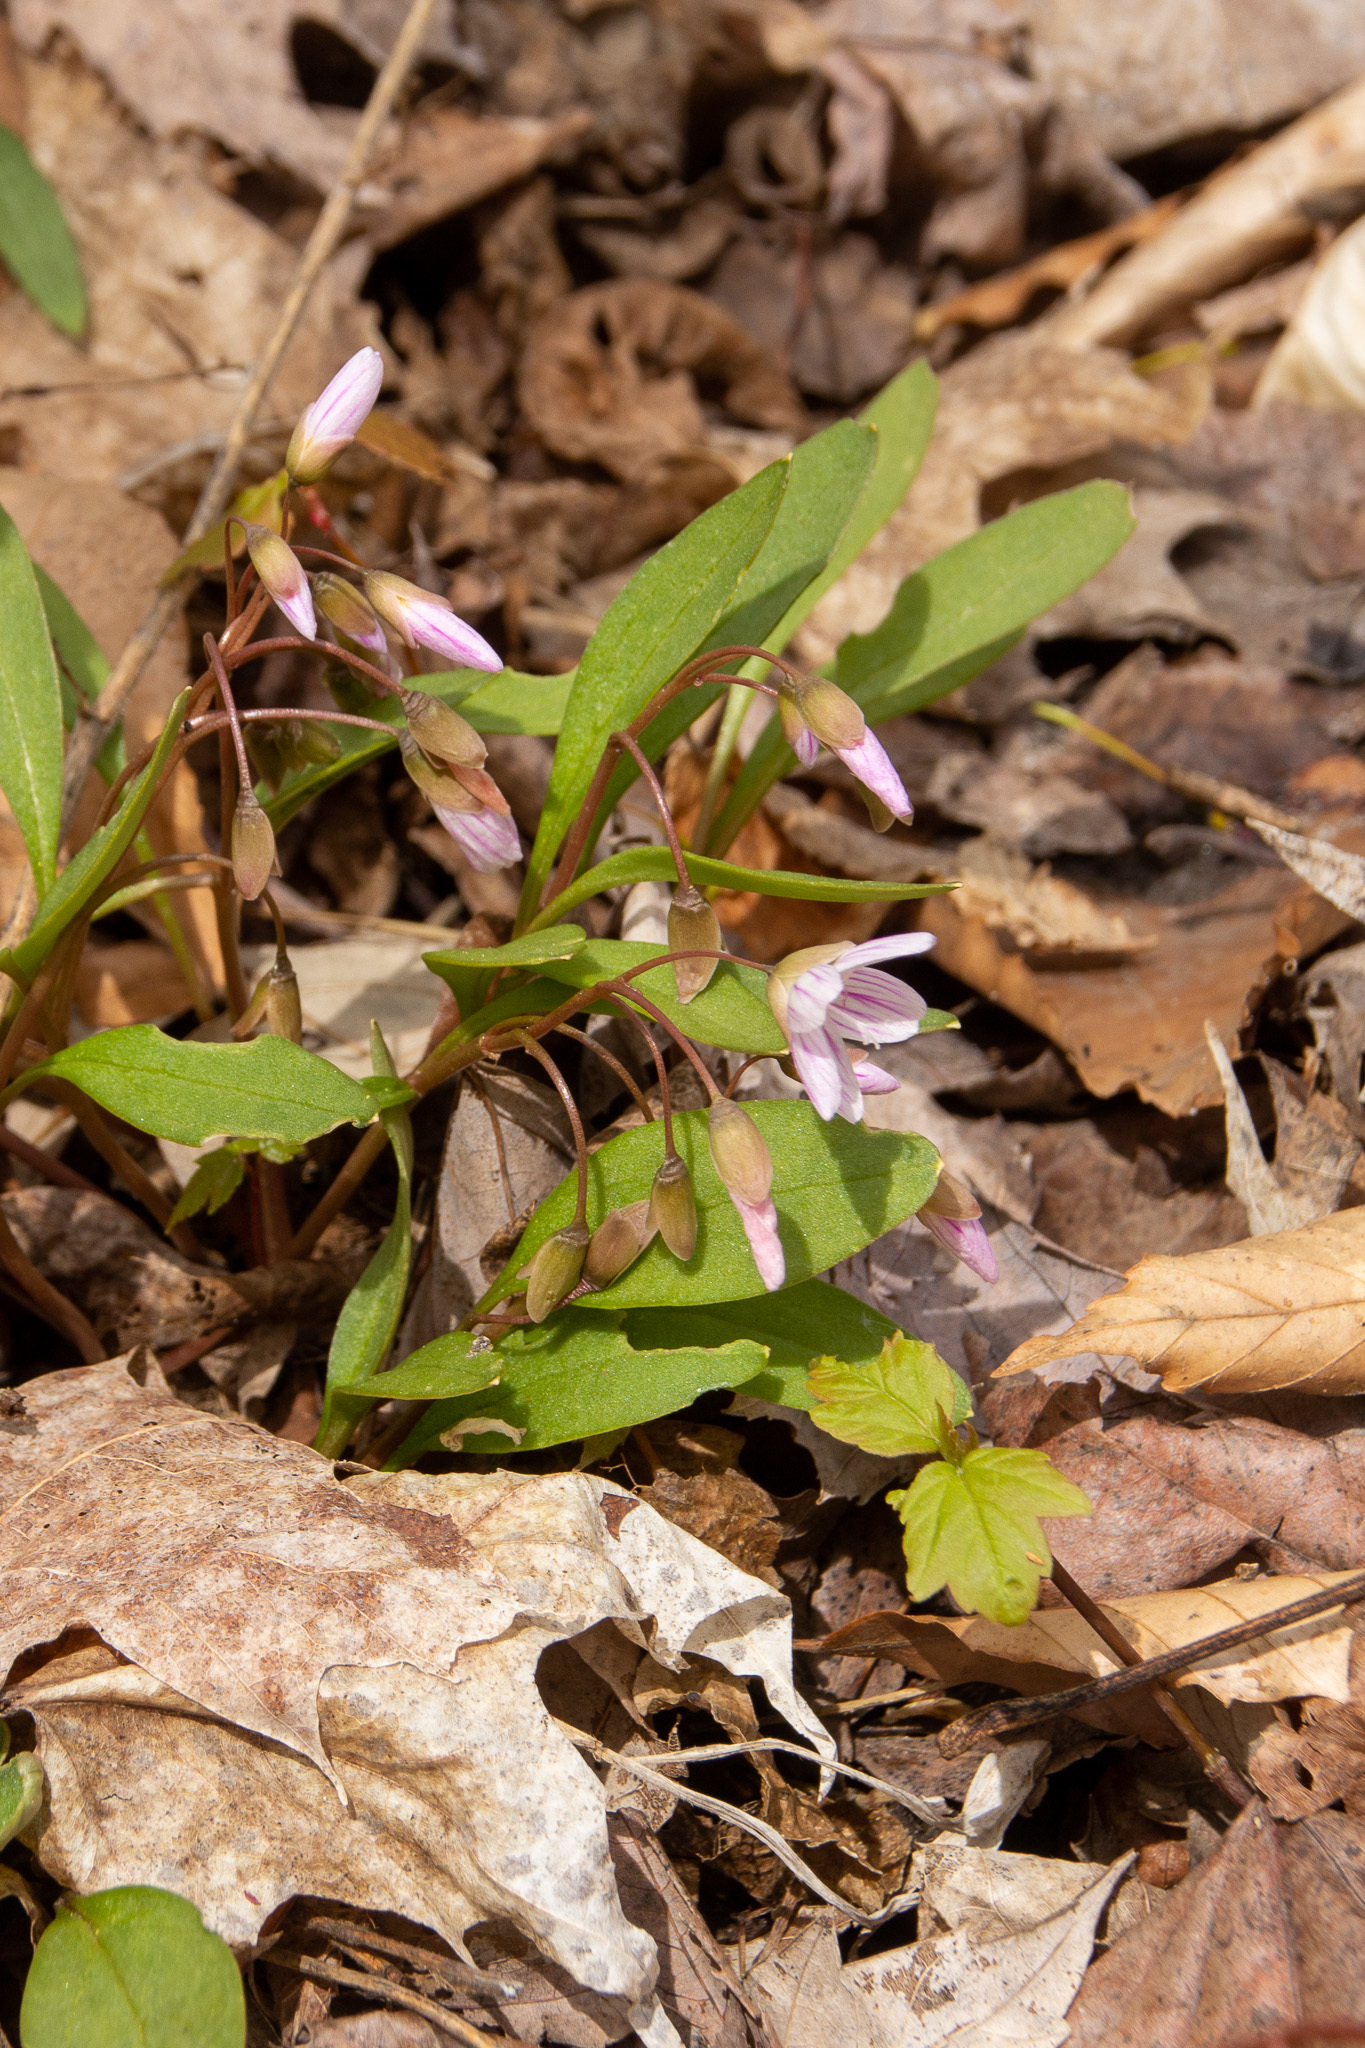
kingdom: Plantae
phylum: Tracheophyta
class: Magnoliopsida
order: Caryophyllales
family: Montiaceae
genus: Claytonia
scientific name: Claytonia caroliniana
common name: Carolina spring beauty
